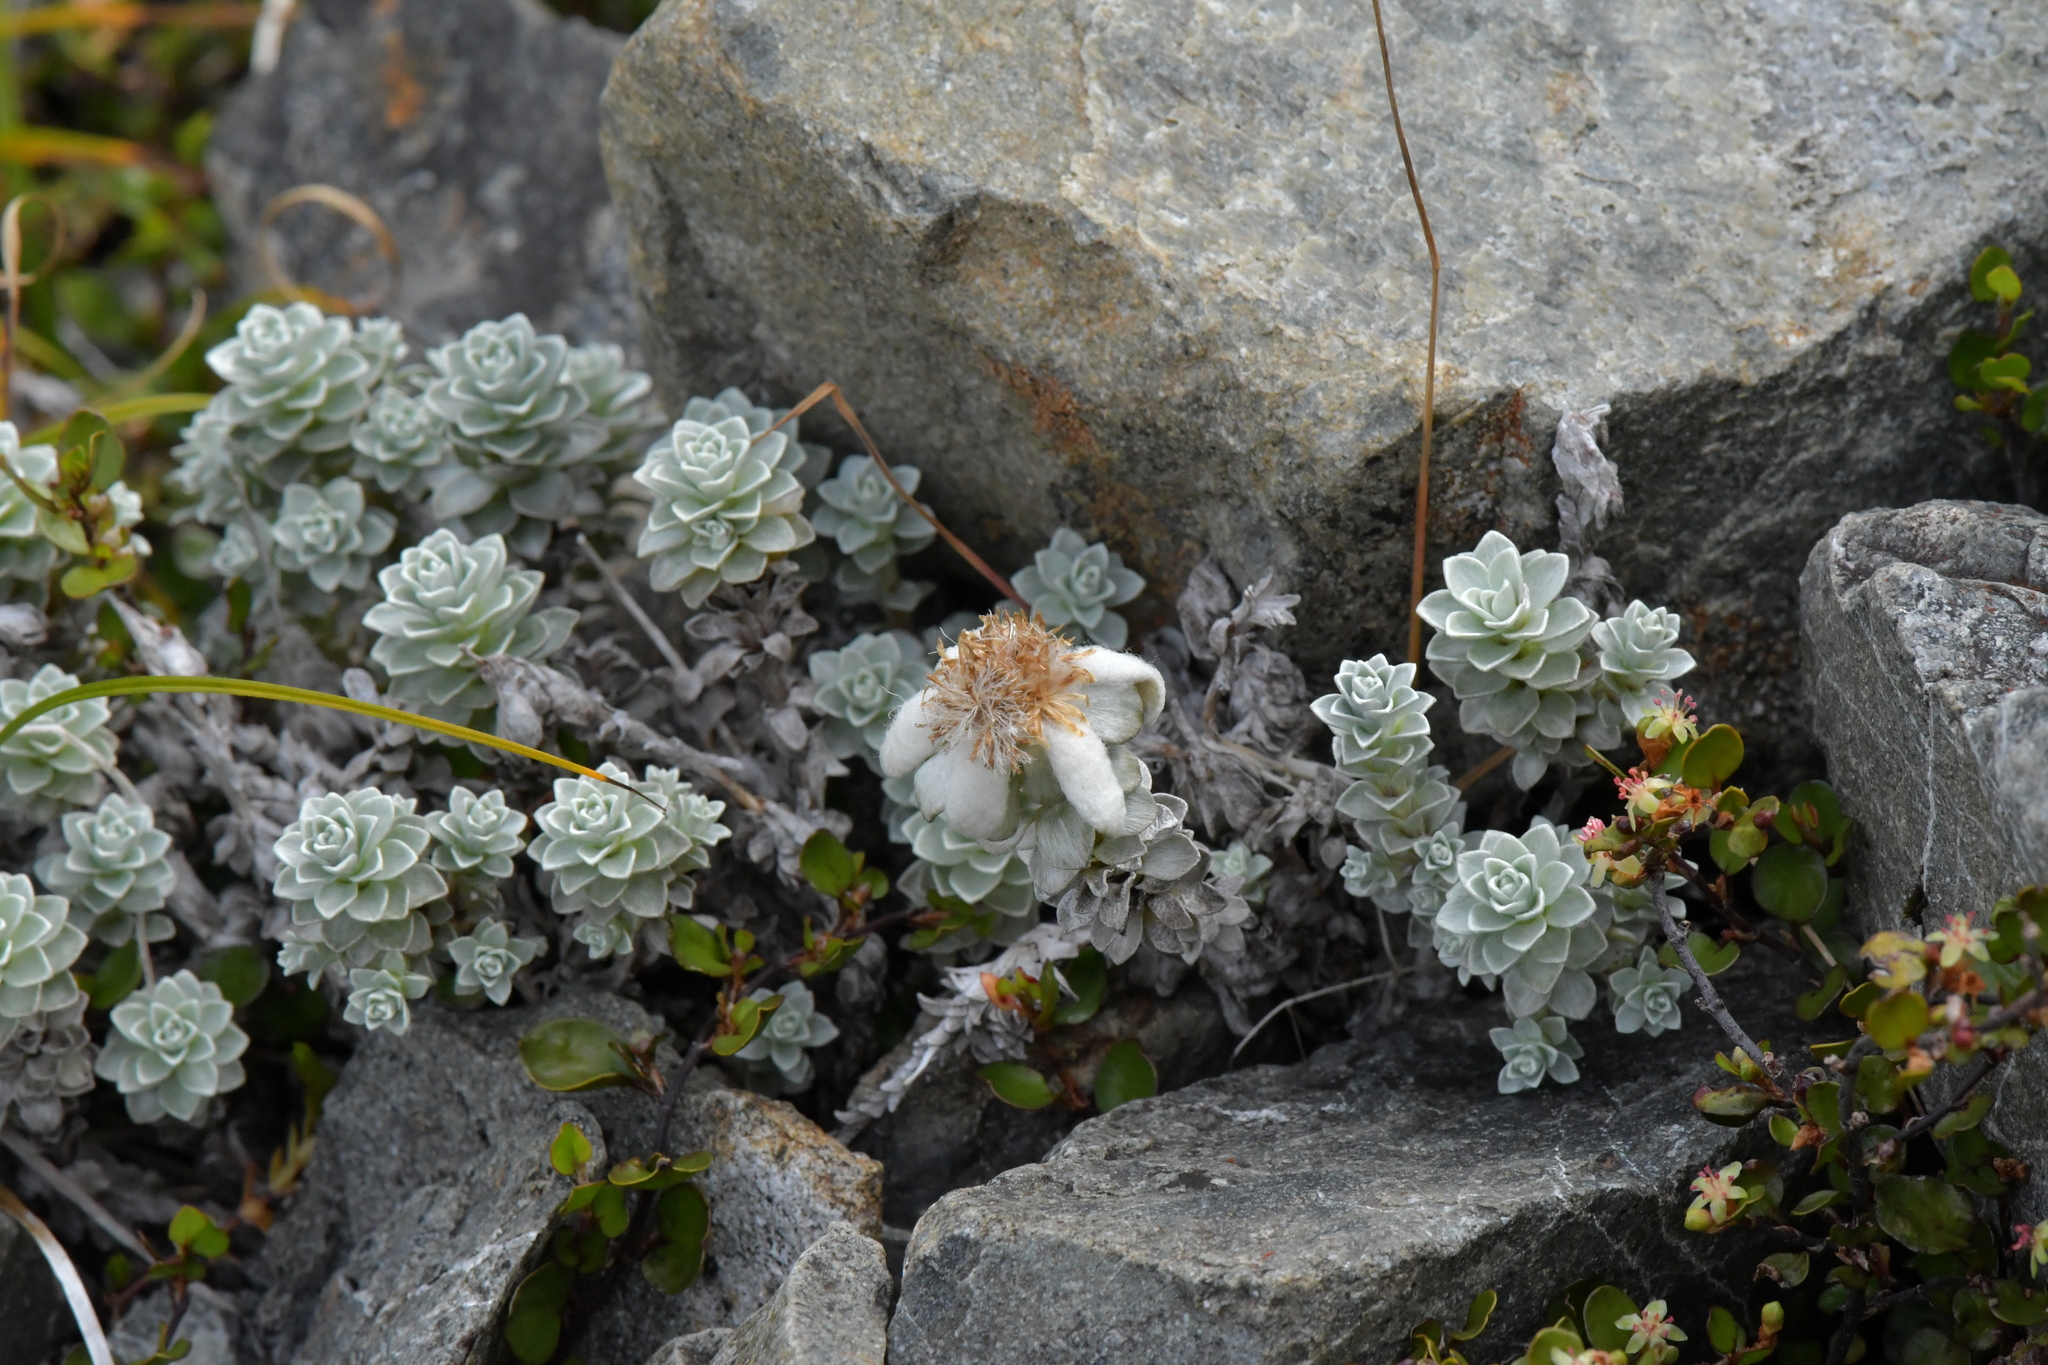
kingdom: Plantae
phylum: Tracheophyta
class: Magnoliopsida
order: Asterales
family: Asteraceae
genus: Leucogenes
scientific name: Leucogenes grandiceps
